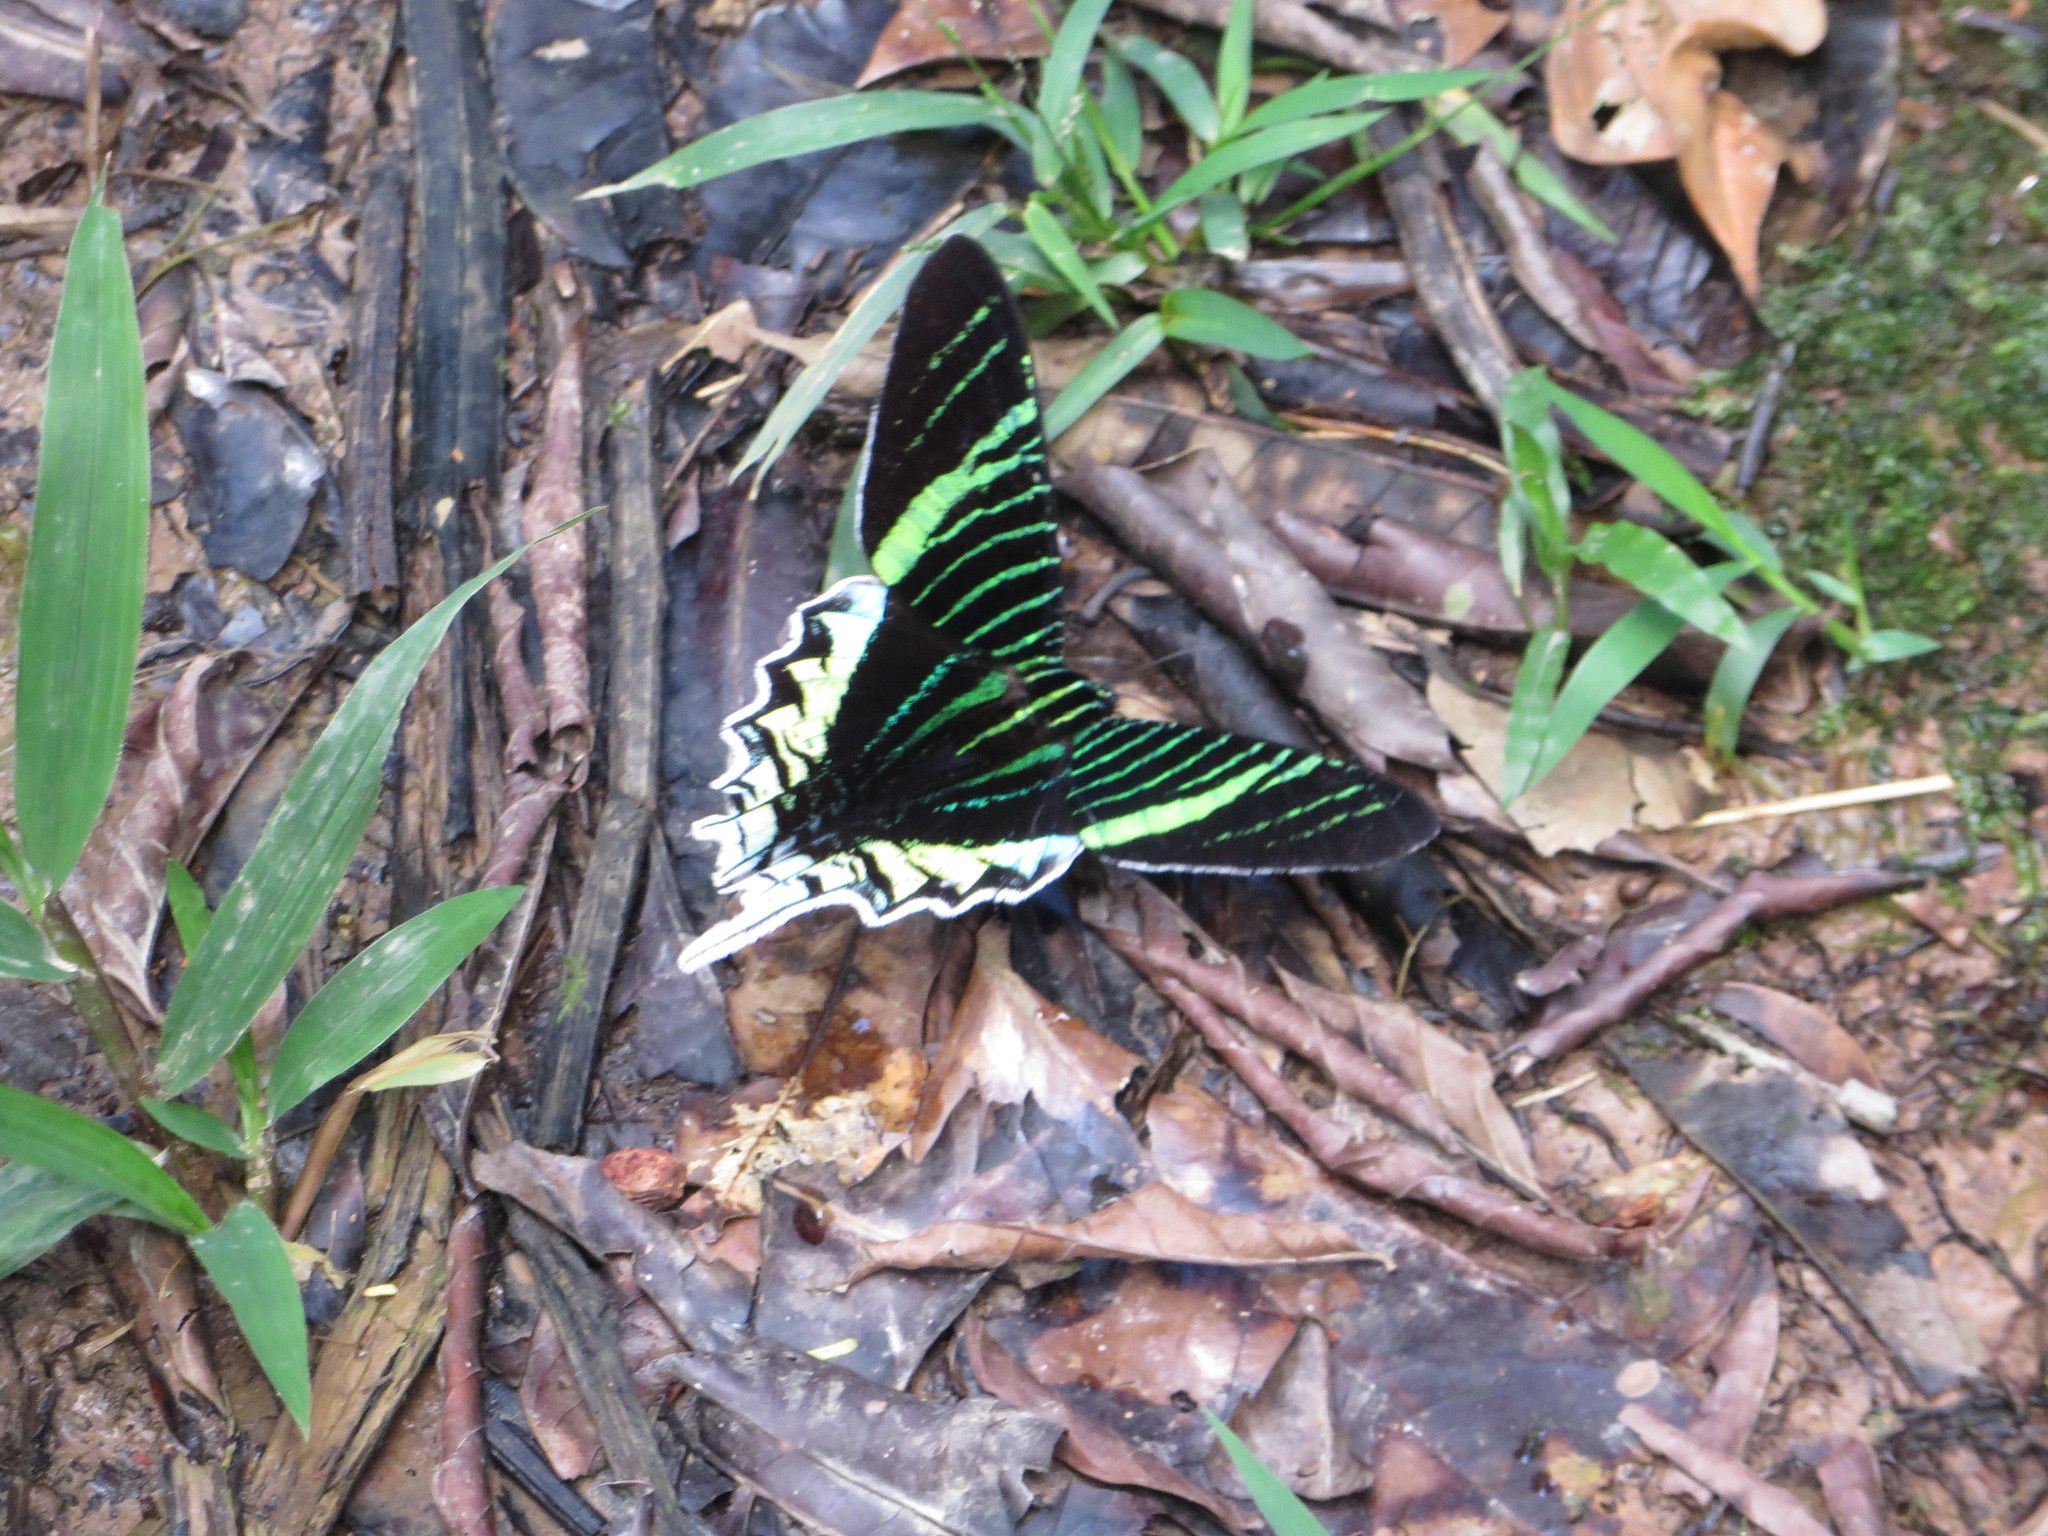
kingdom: Animalia
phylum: Arthropoda
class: Insecta
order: Lepidoptera
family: Uraniidae
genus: Urania
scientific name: Urania leilus
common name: Peacock moth
